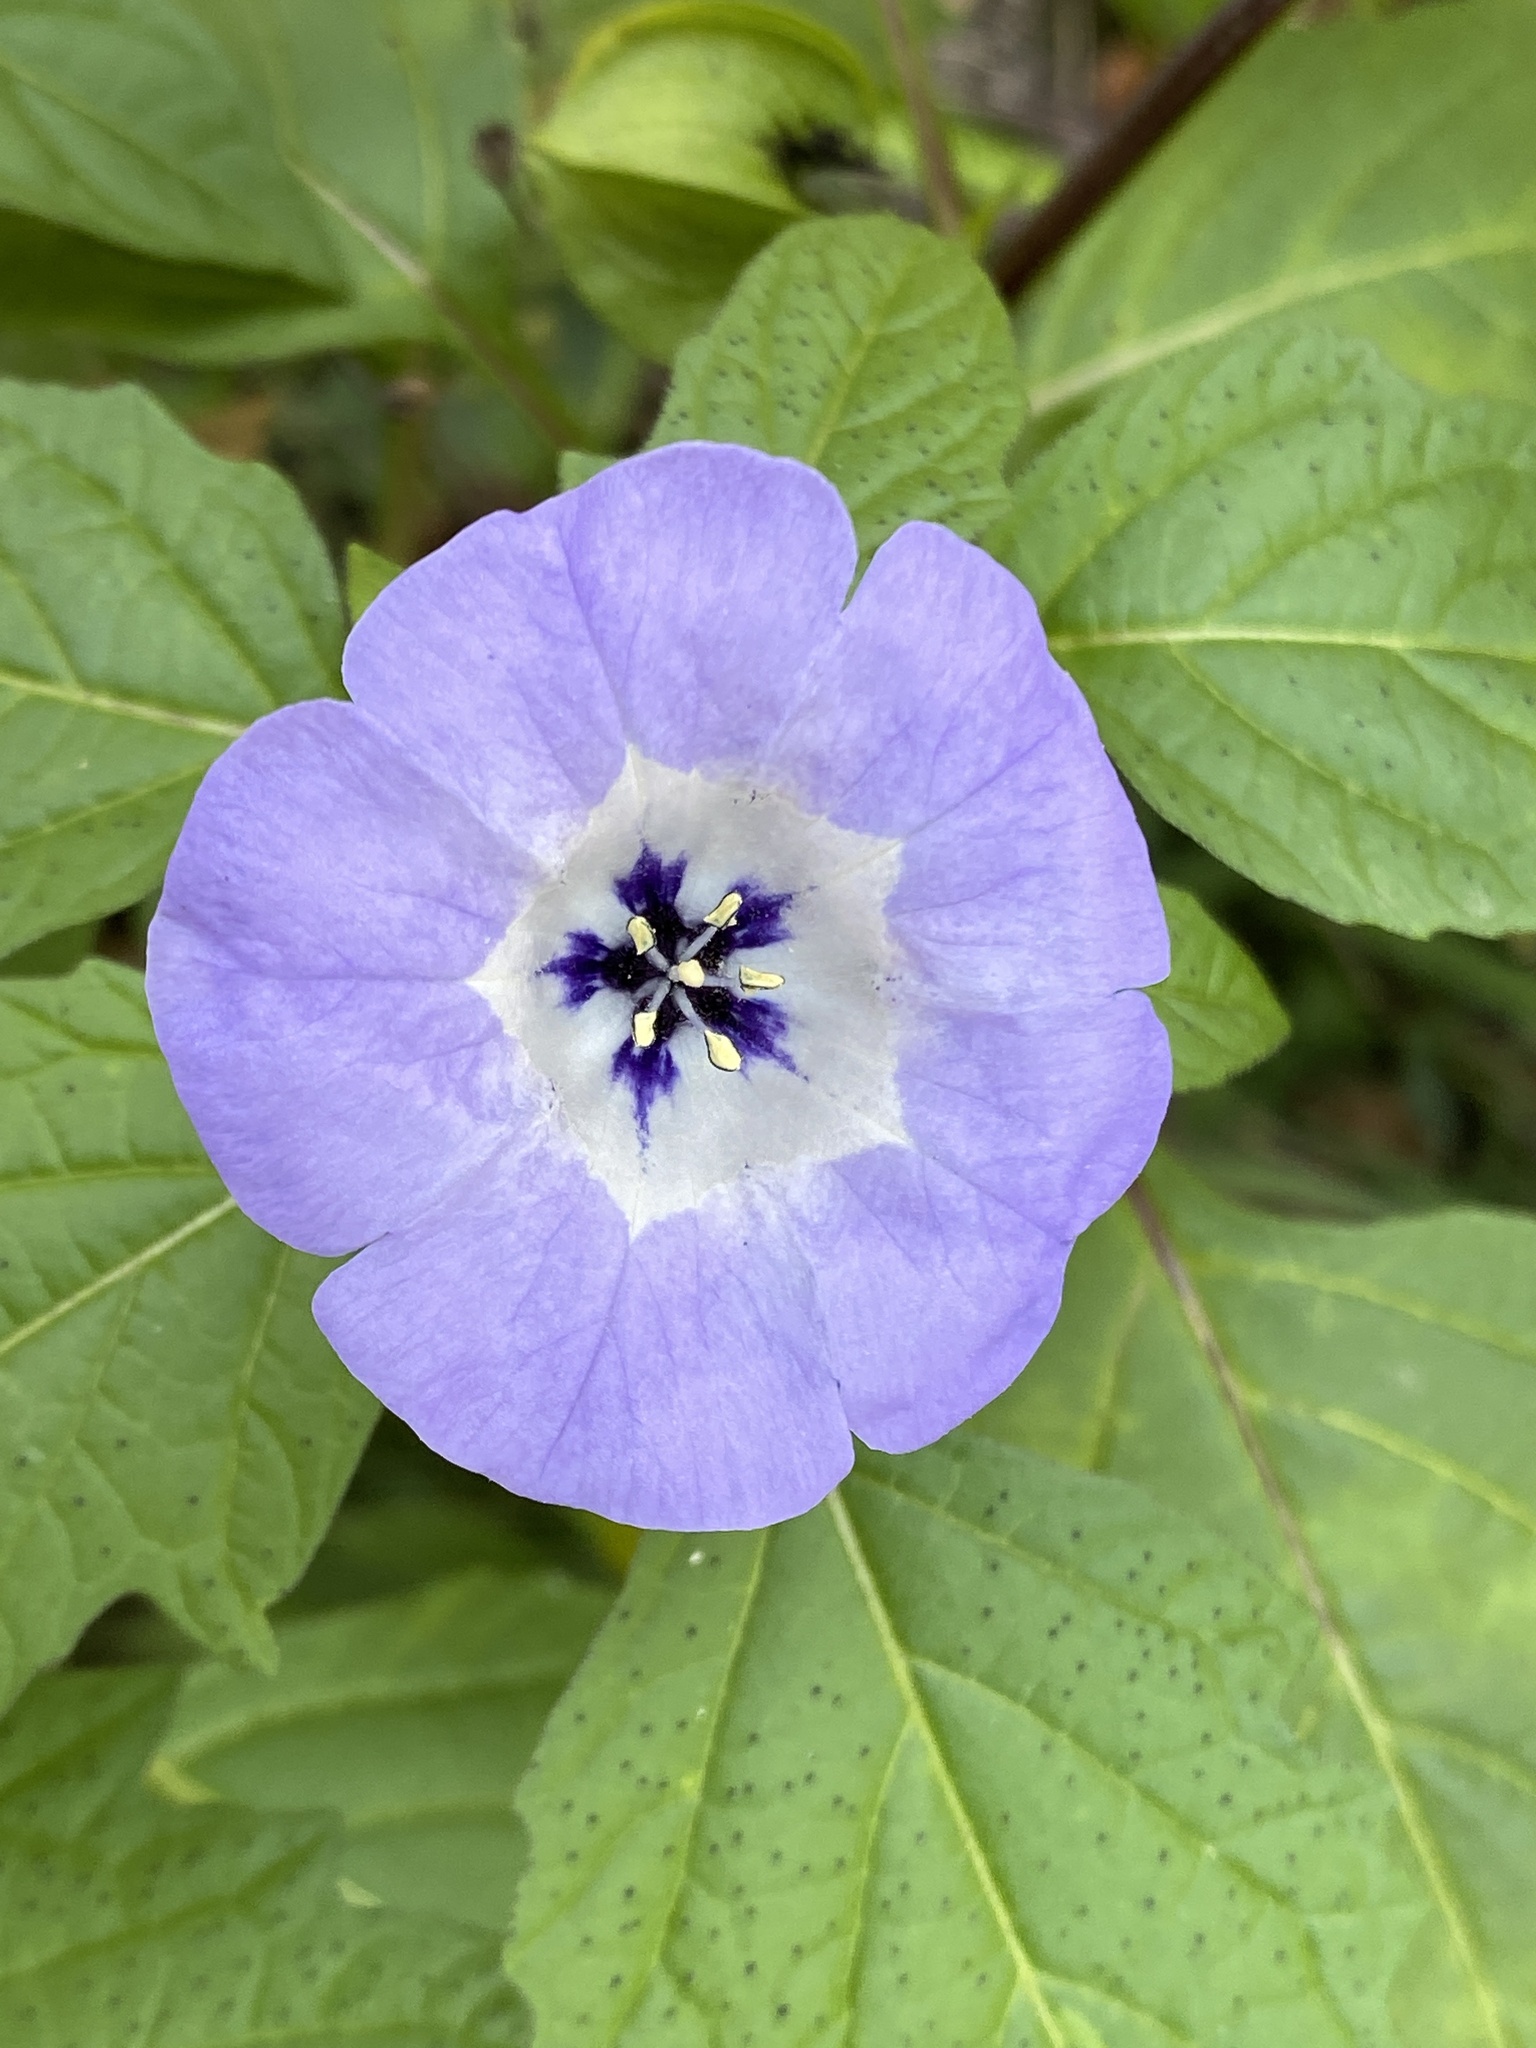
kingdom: Plantae
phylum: Tracheophyta
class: Magnoliopsida
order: Solanales
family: Solanaceae
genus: Nicandra
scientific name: Nicandra physalodes
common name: Apple-of-peru
